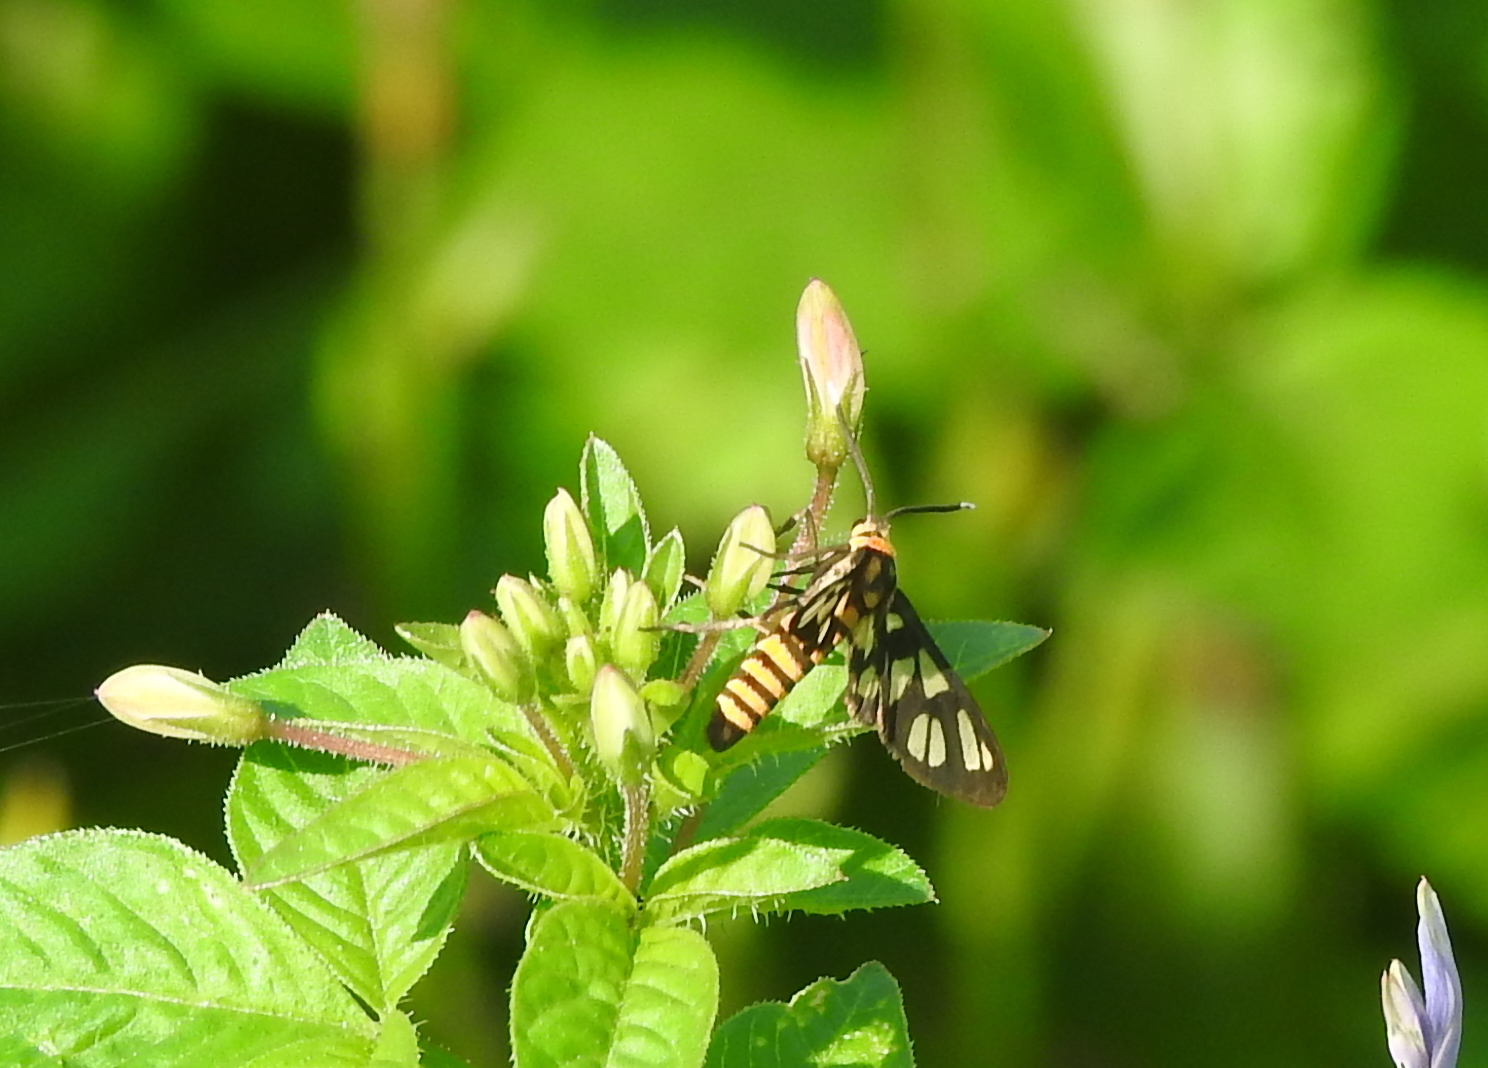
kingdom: Animalia
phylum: Arthropoda
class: Insecta
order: Lepidoptera
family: Erebidae
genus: Amata
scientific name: Amata huebneri
